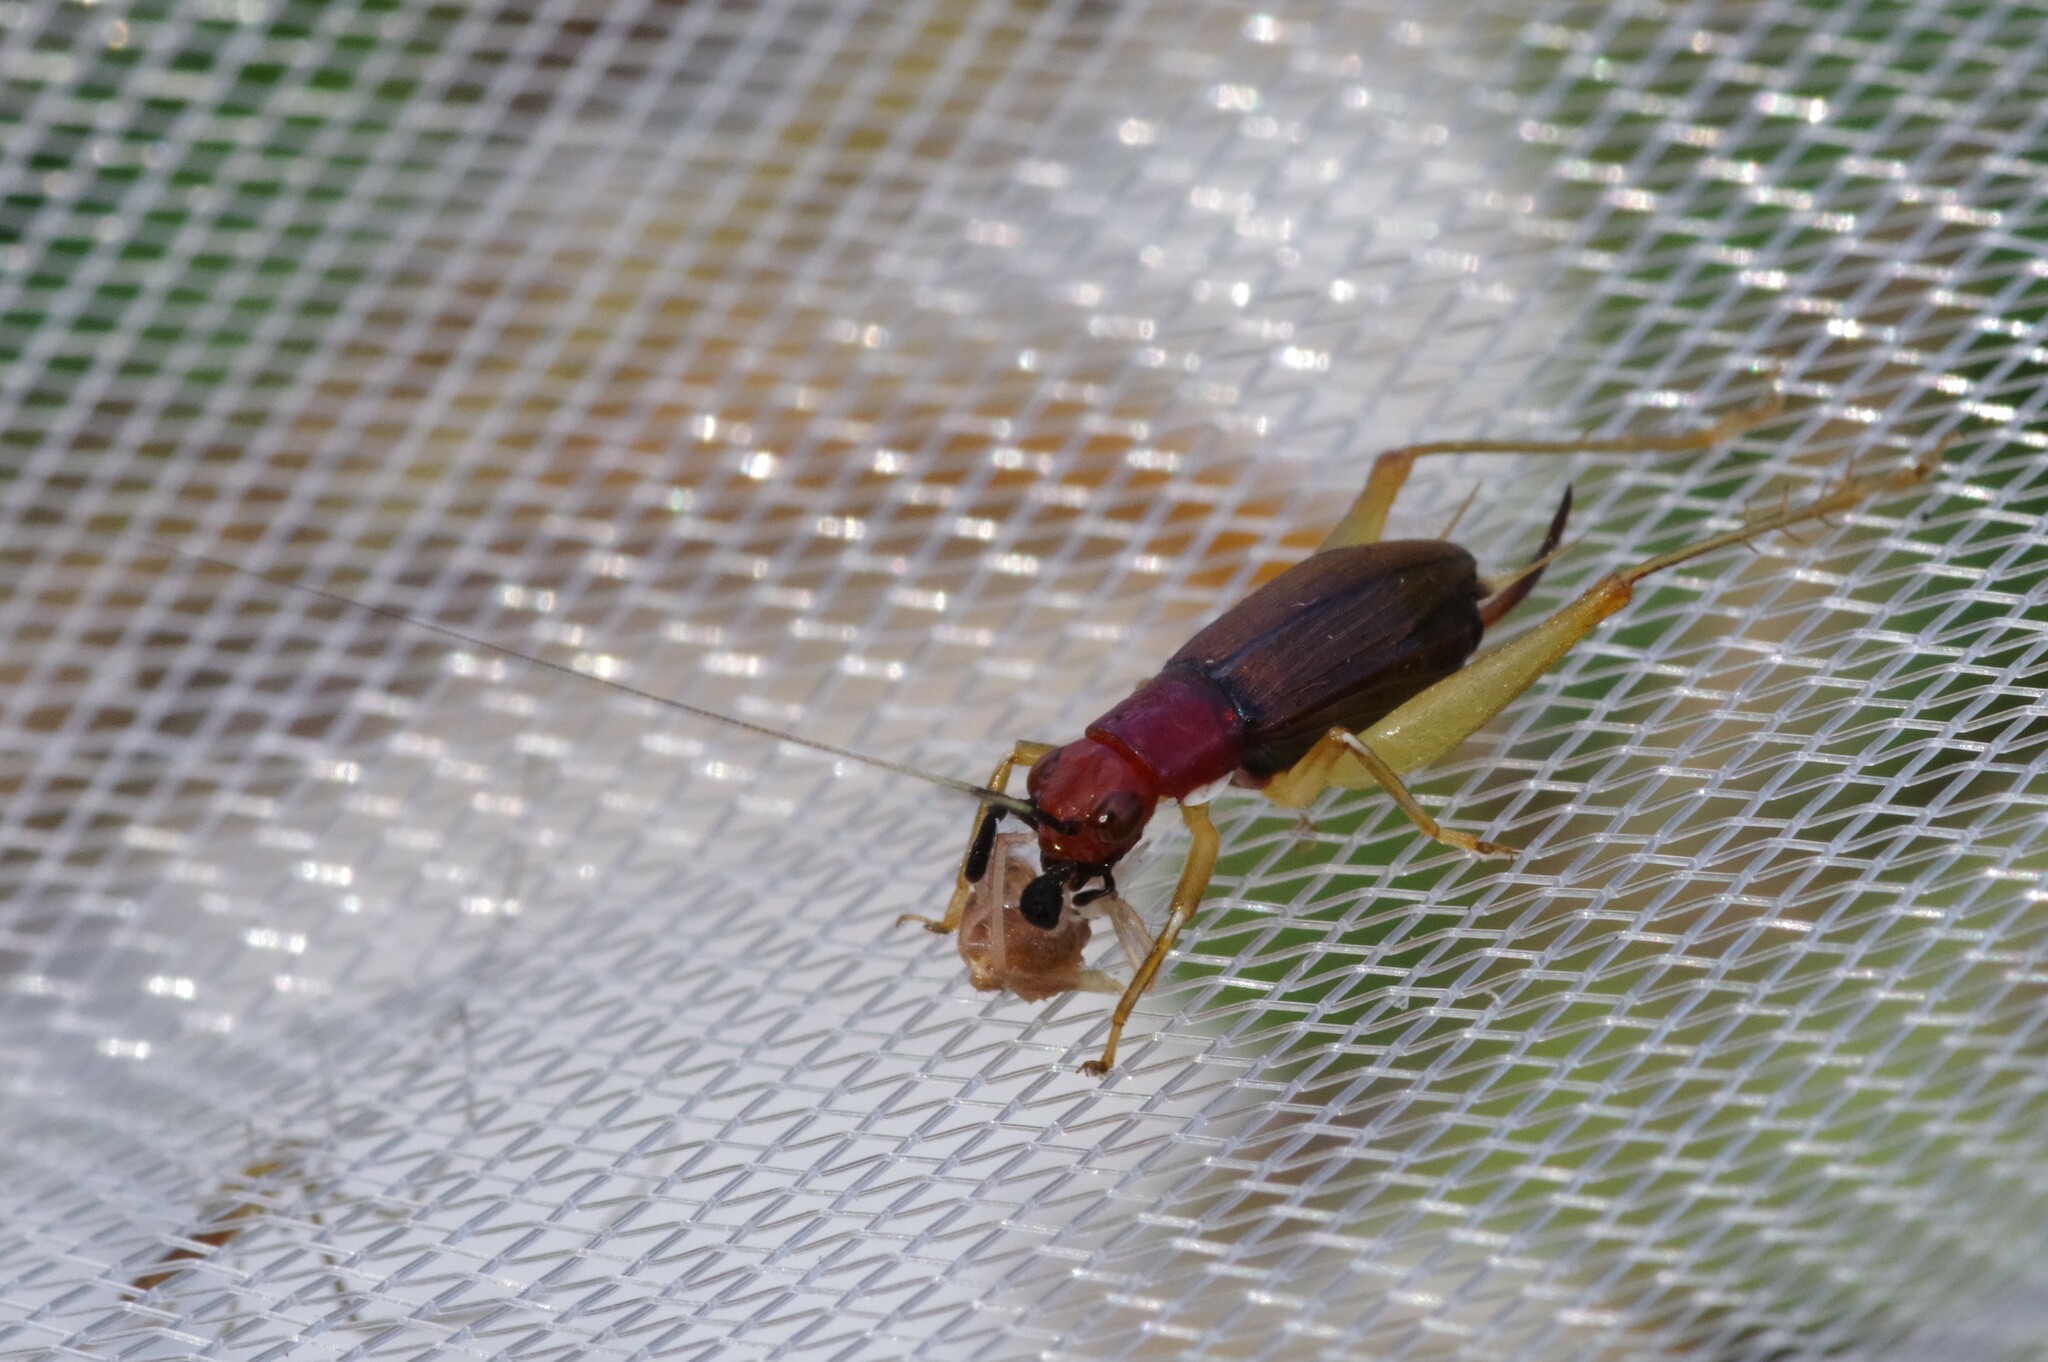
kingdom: Animalia
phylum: Arthropoda
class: Insecta
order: Orthoptera
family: Trigonidiidae
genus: Phyllopalpus
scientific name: Phyllopalpus pulchellus
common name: Handsome trig
